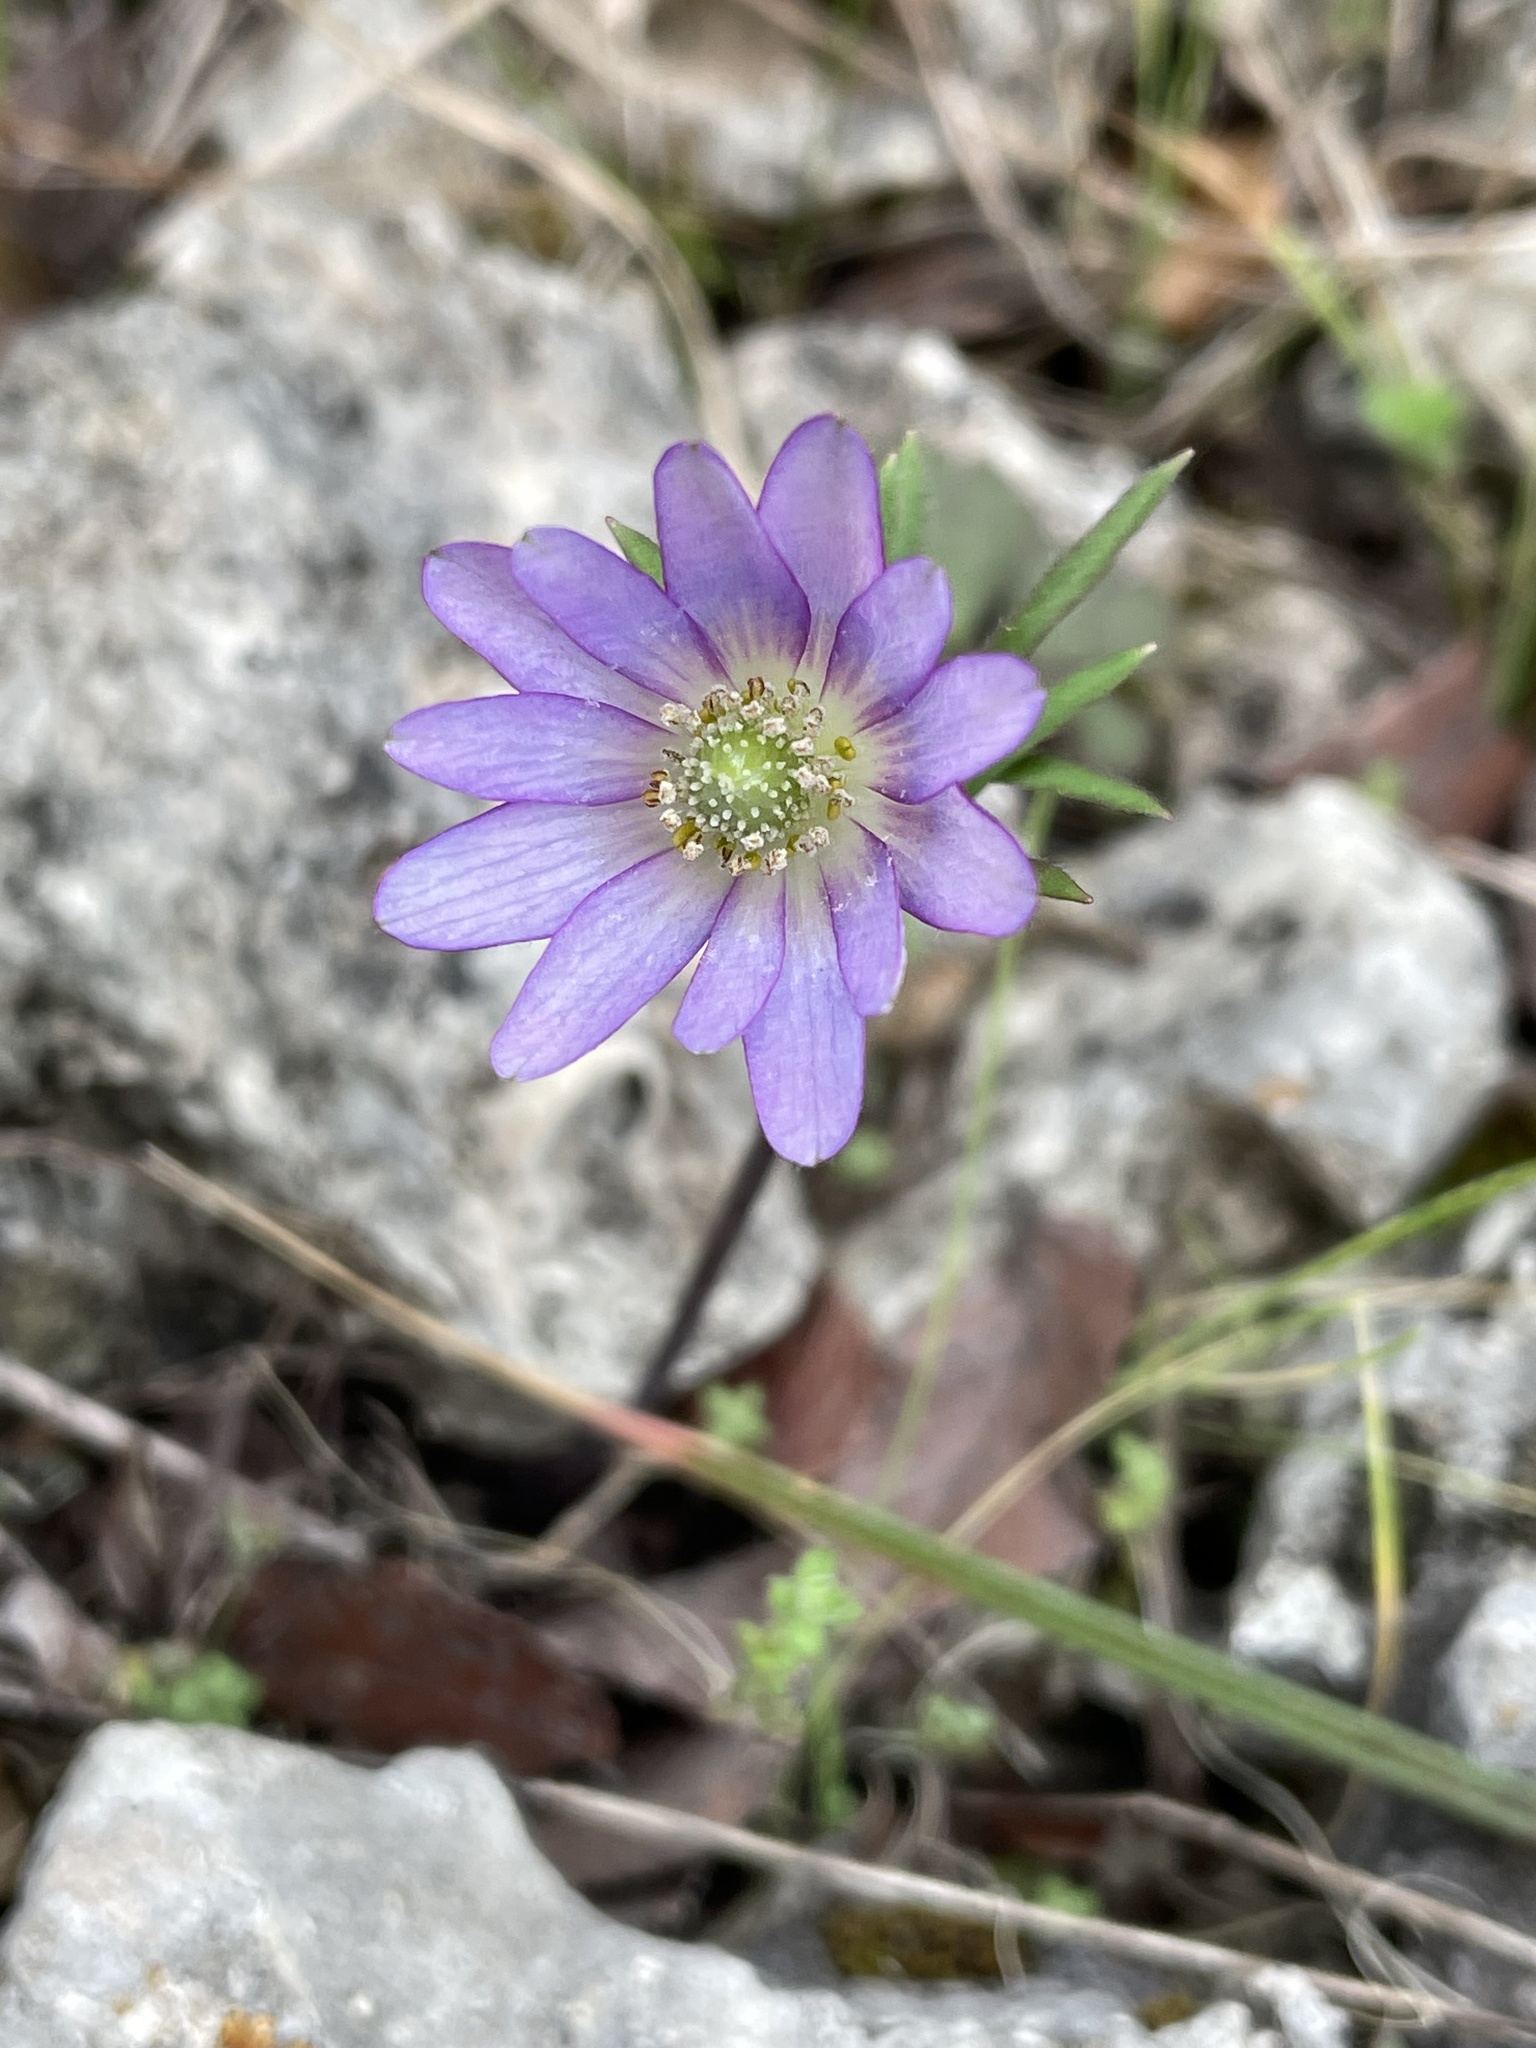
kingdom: Plantae
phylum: Tracheophyta
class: Magnoliopsida
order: Ranunculales
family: Ranunculaceae
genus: Anemone
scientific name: Anemone berlandieri
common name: Ten-petal anemone
